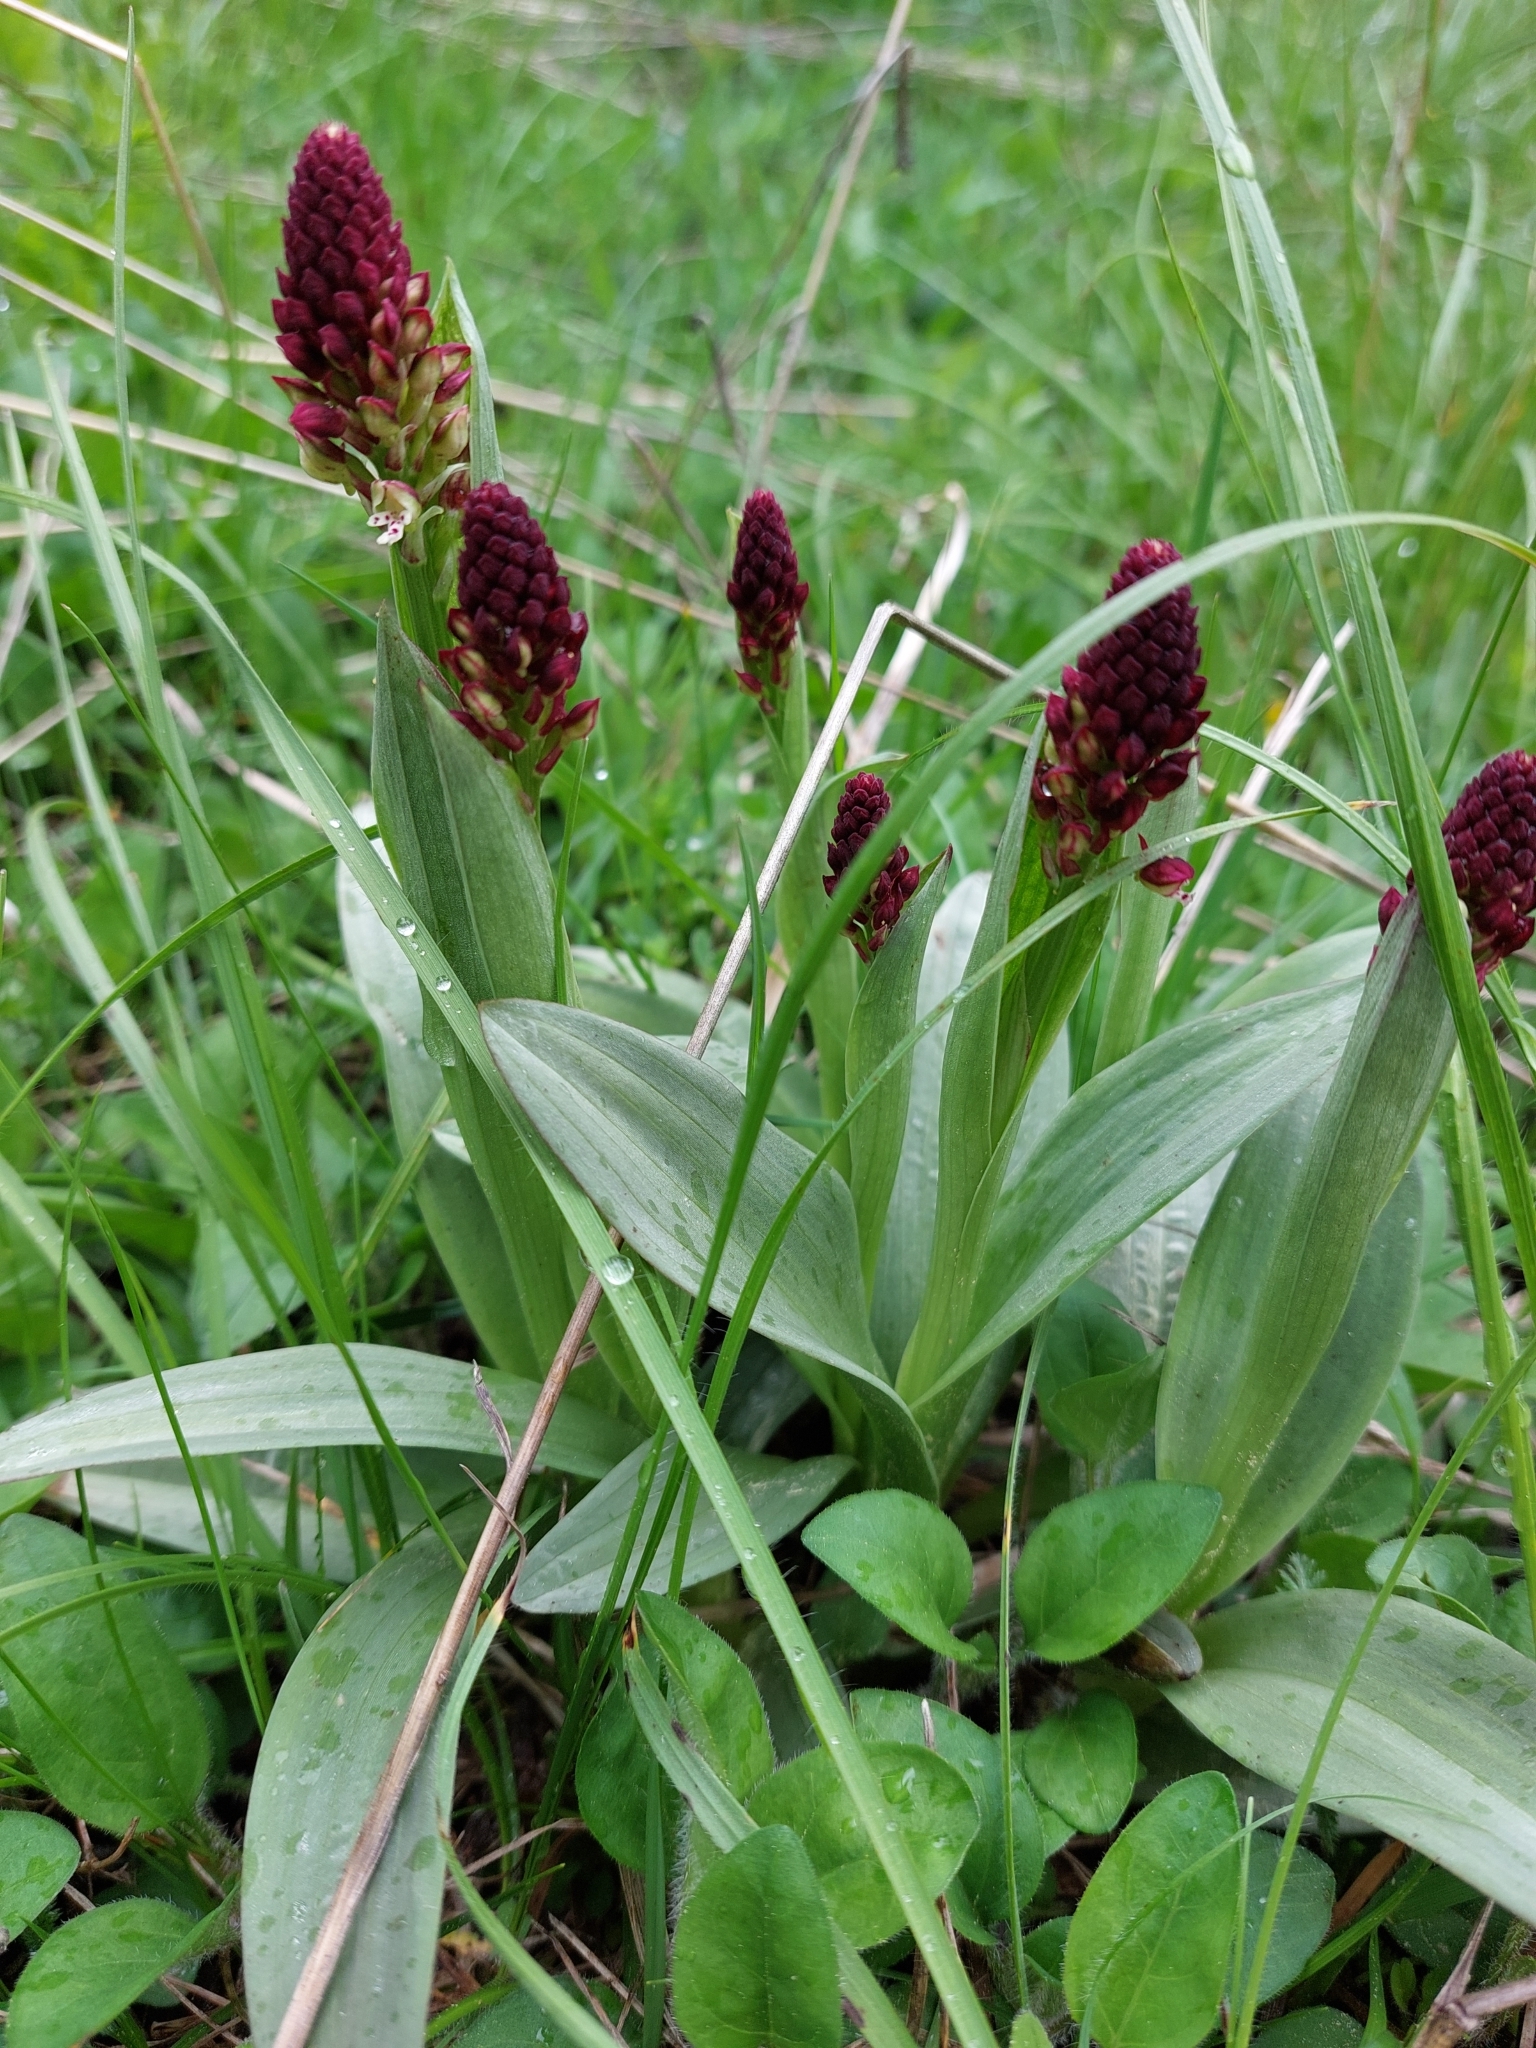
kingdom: Plantae
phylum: Tracheophyta
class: Liliopsida
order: Asparagales
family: Orchidaceae
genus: Neotinea
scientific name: Neotinea ustulata
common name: Burnt orchid
